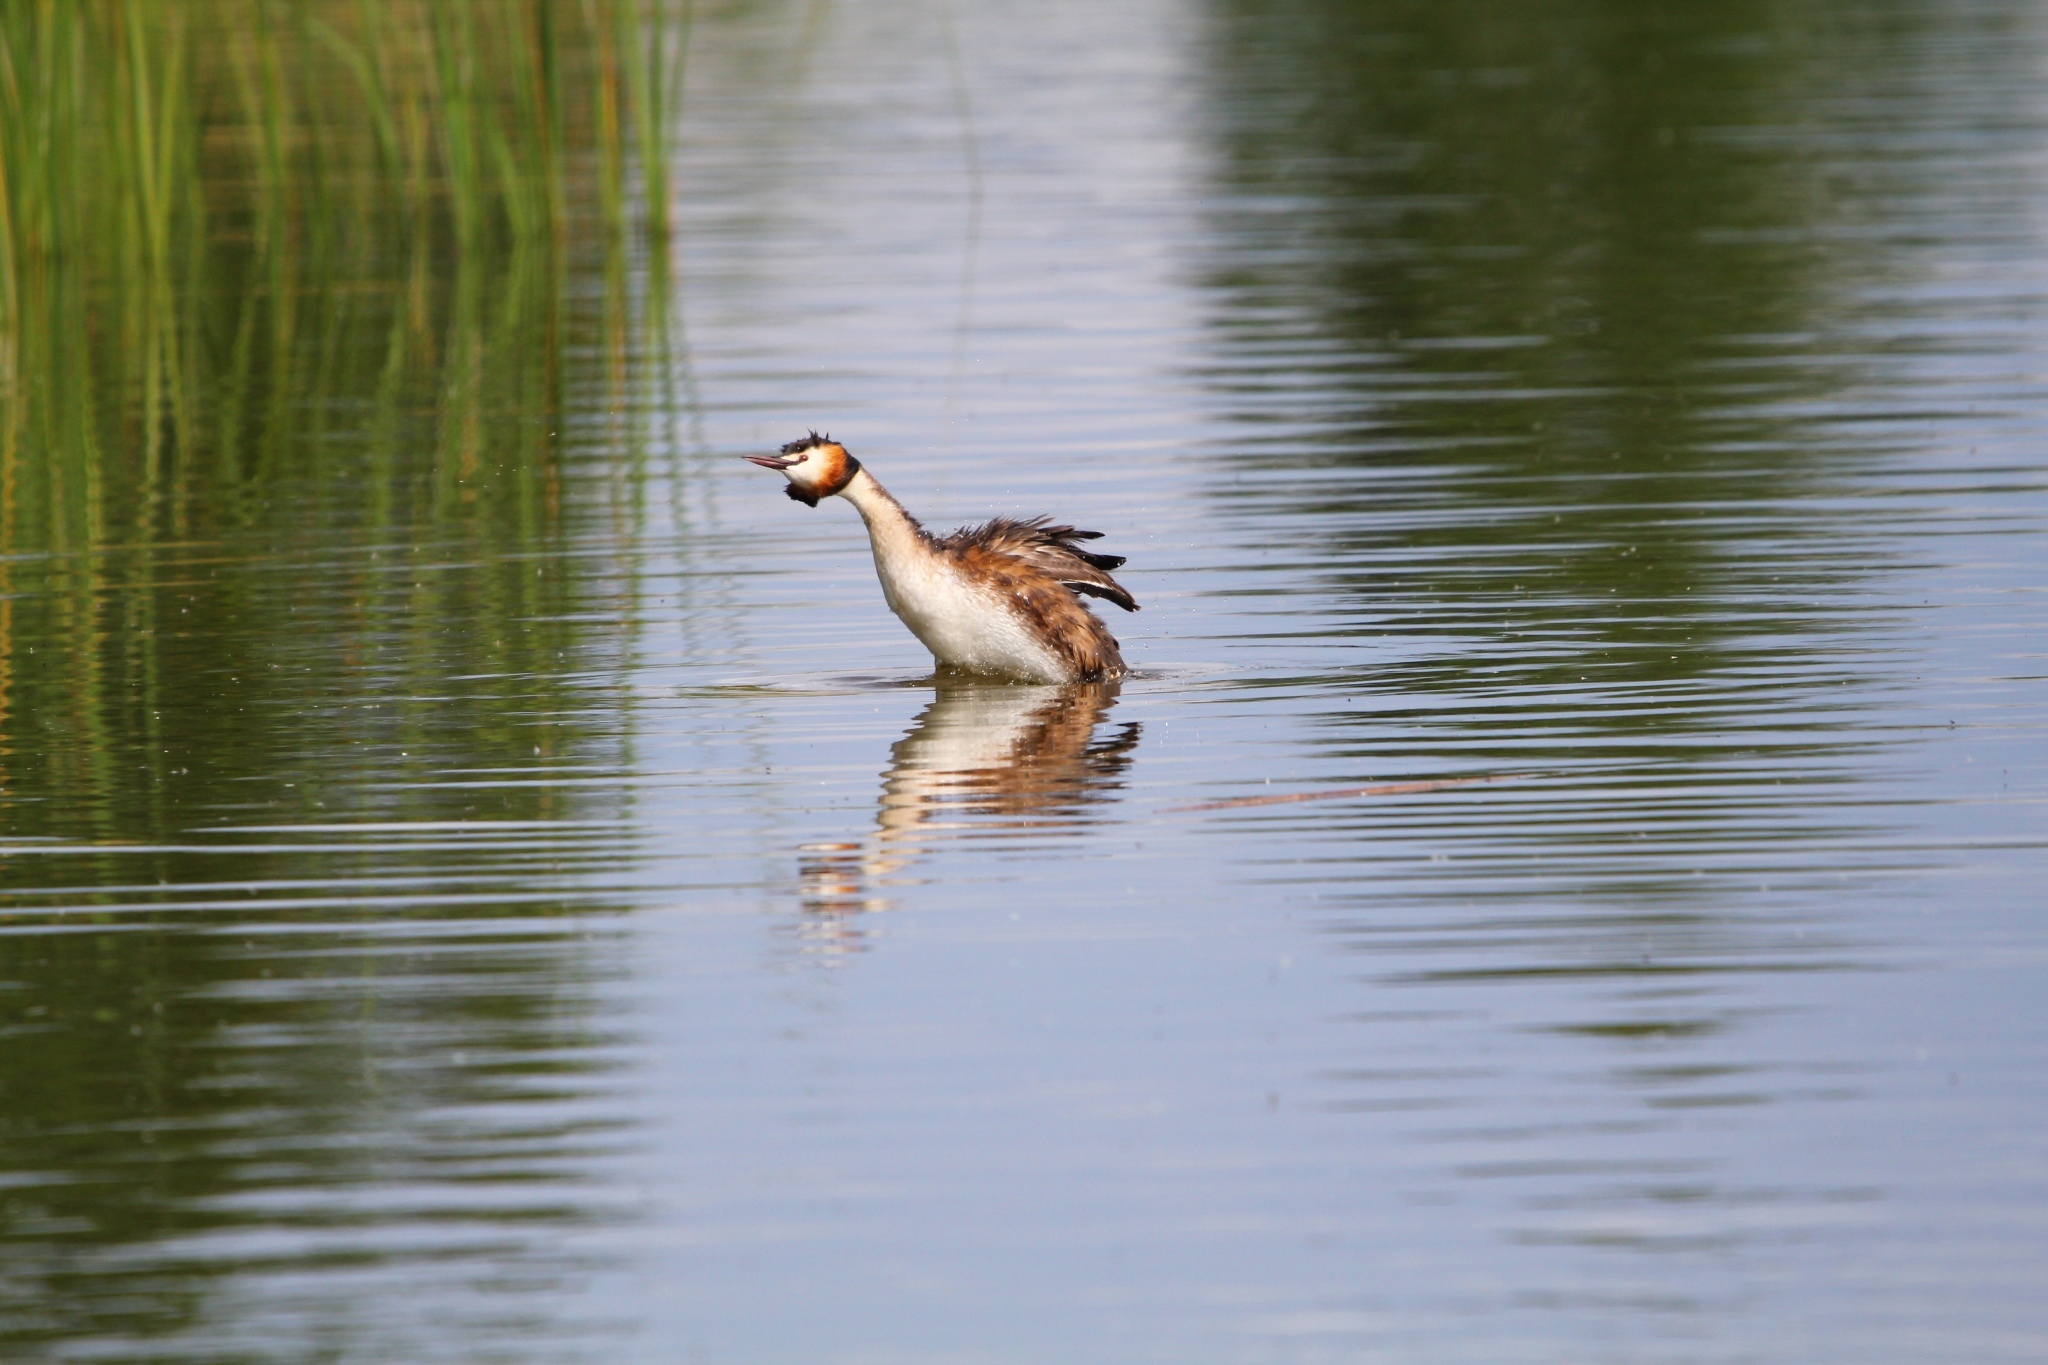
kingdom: Animalia
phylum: Chordata
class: Aves
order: Podicipediformes
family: Podicipedidae
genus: Podiceps
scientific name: Podiceps cristatus
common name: Great crested grebe
